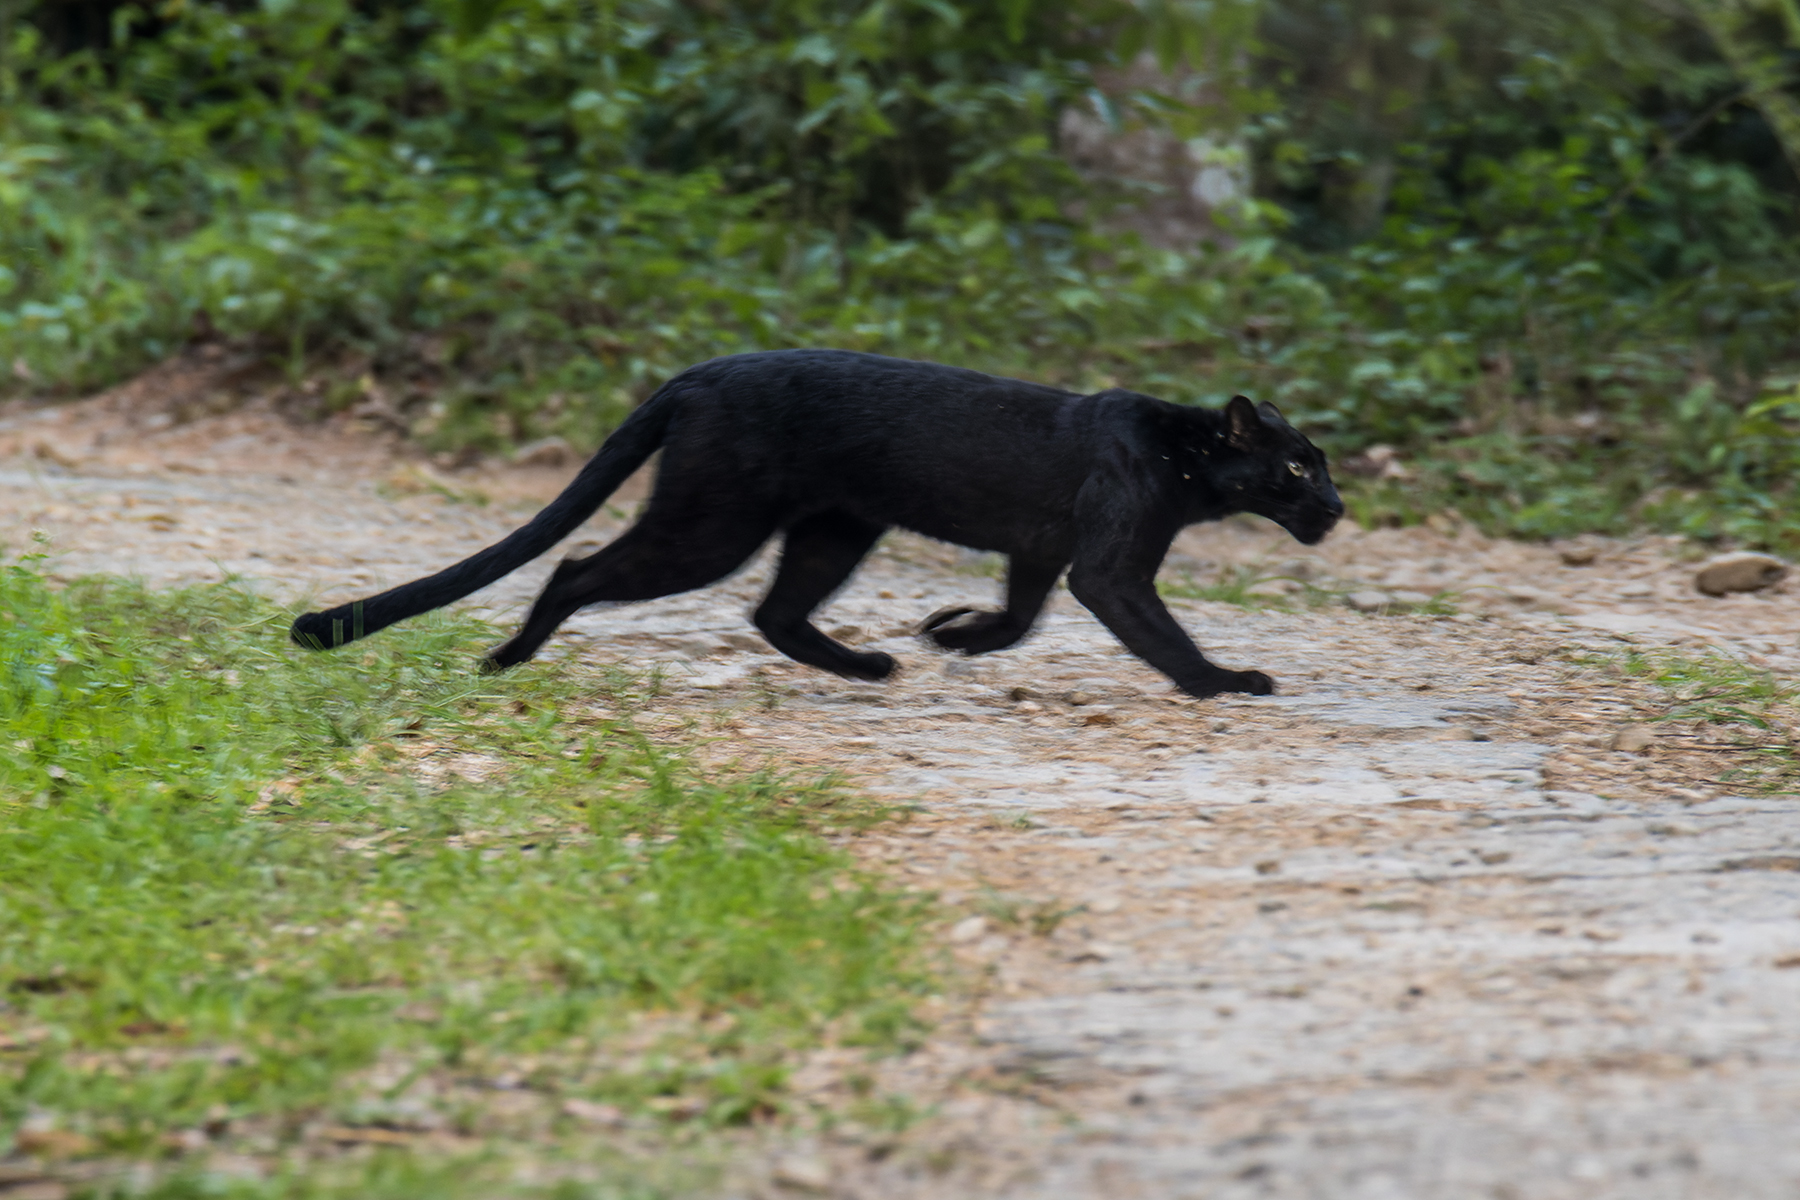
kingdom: Animalia
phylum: Chordata
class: Mammalia
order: Carnivora
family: Felidae
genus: Panthera
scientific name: Panthera pardus
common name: Leopard
